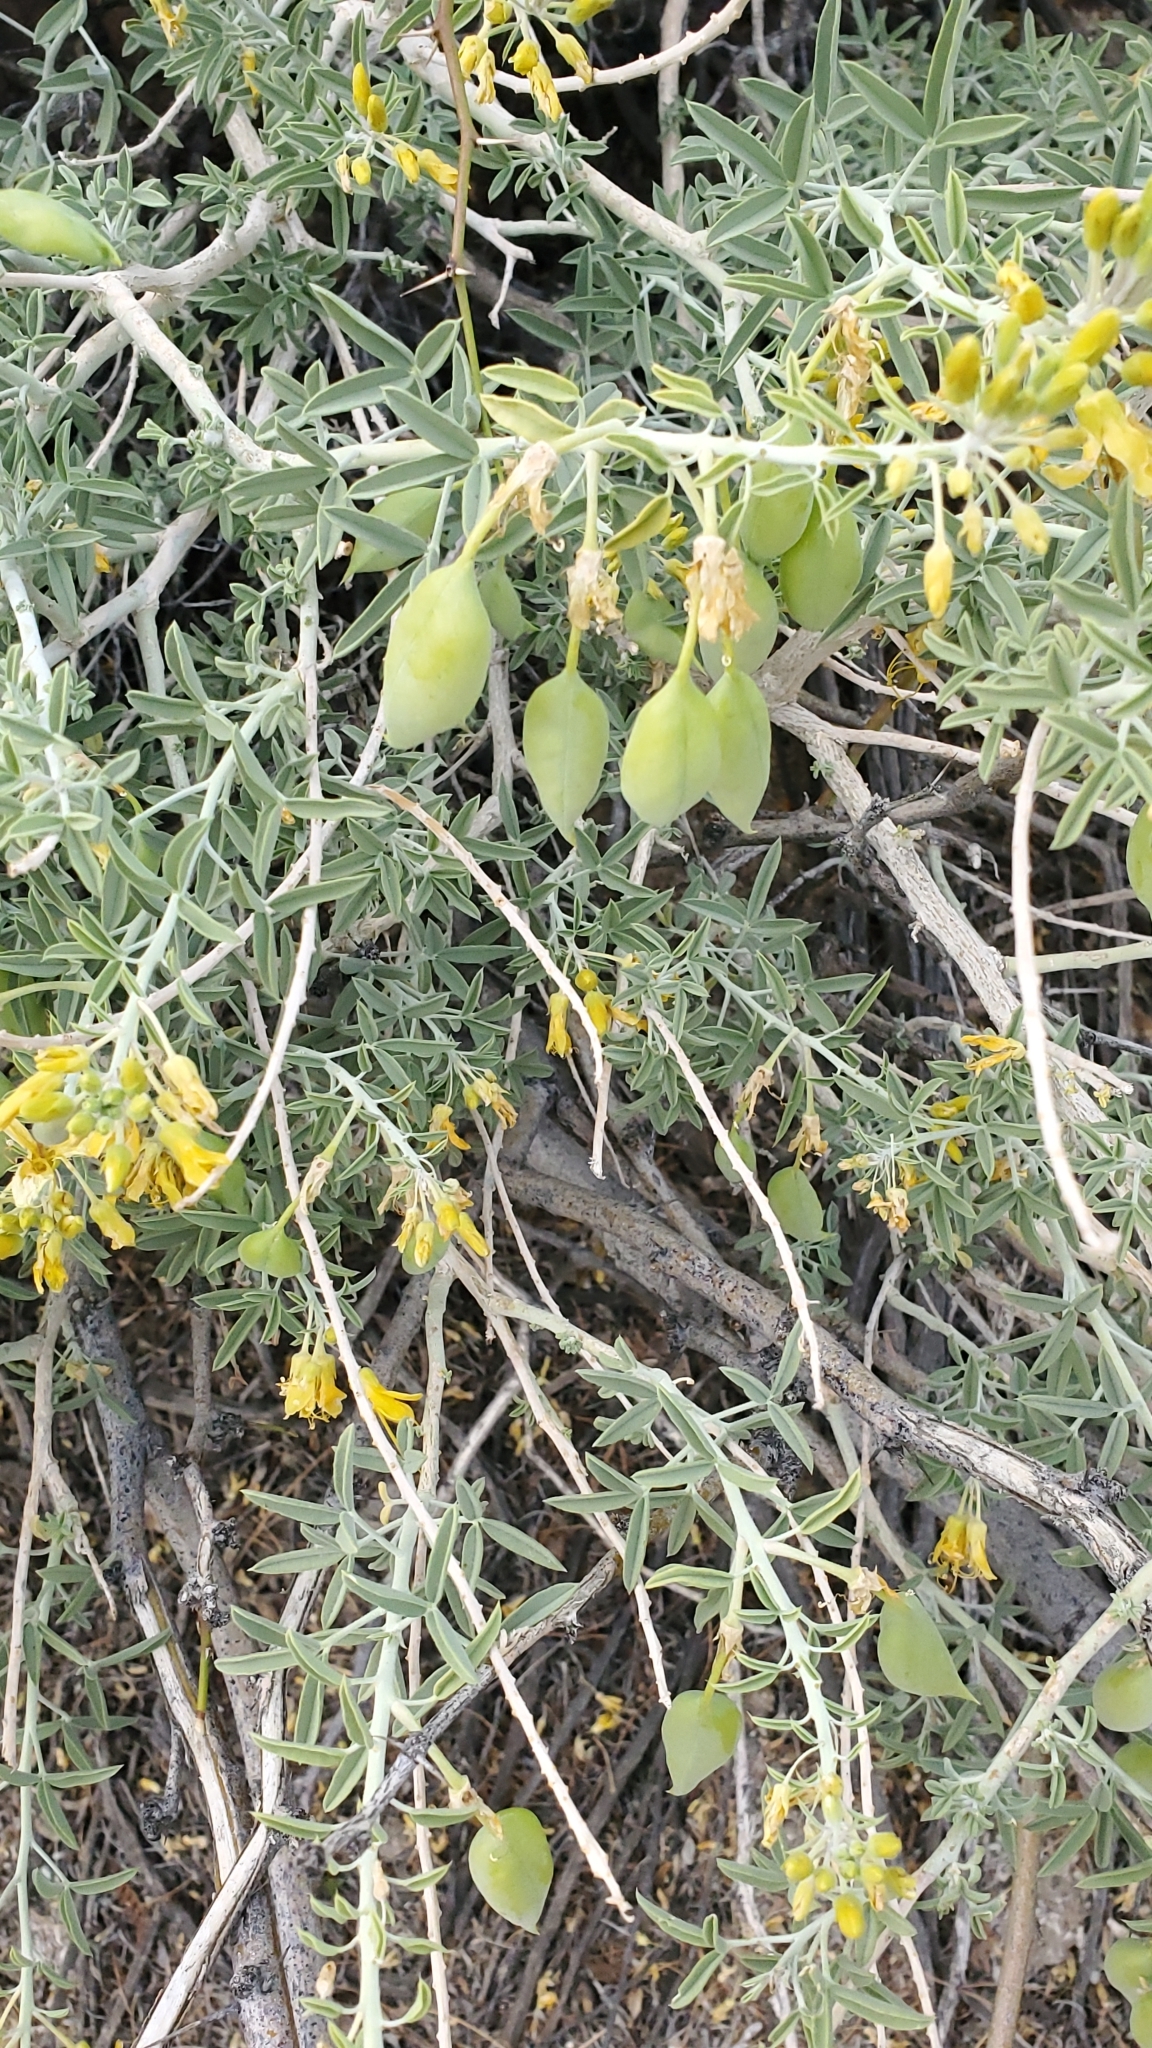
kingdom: Plantae
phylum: Tracheophyta
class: Magnoliopsida
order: Brassicales
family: Cleomaceae
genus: Cleomella
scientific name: Cleomella arborea
